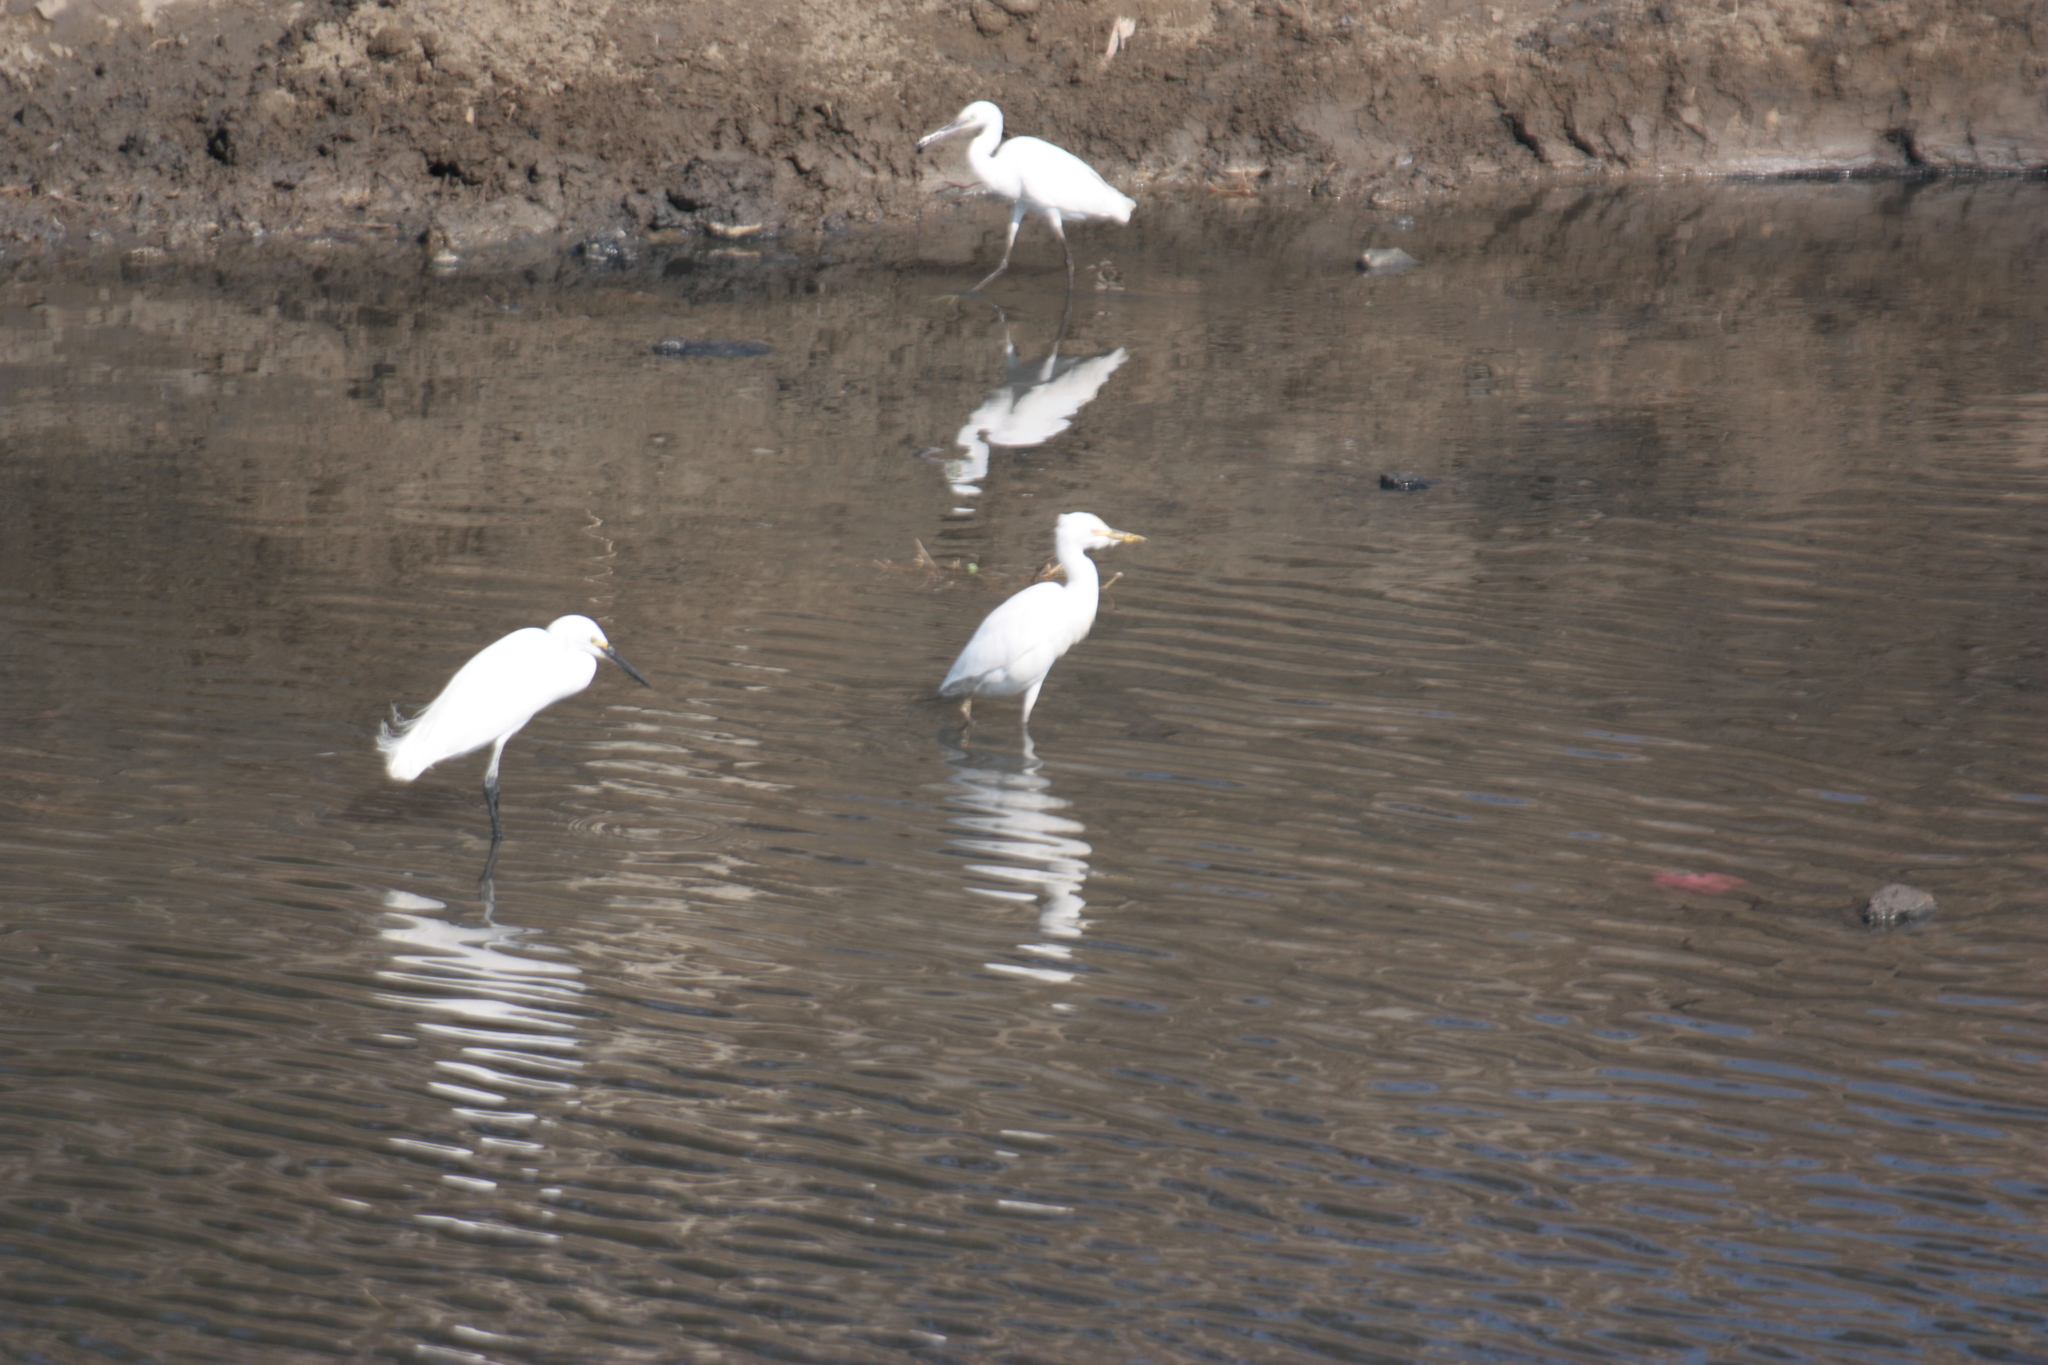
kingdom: Animalia
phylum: Chordata
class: Aves
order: Pelecaniformes
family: Ardeidae
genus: Bubulcus
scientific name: Bubulcus coromandus
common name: Eastern cattle egret
